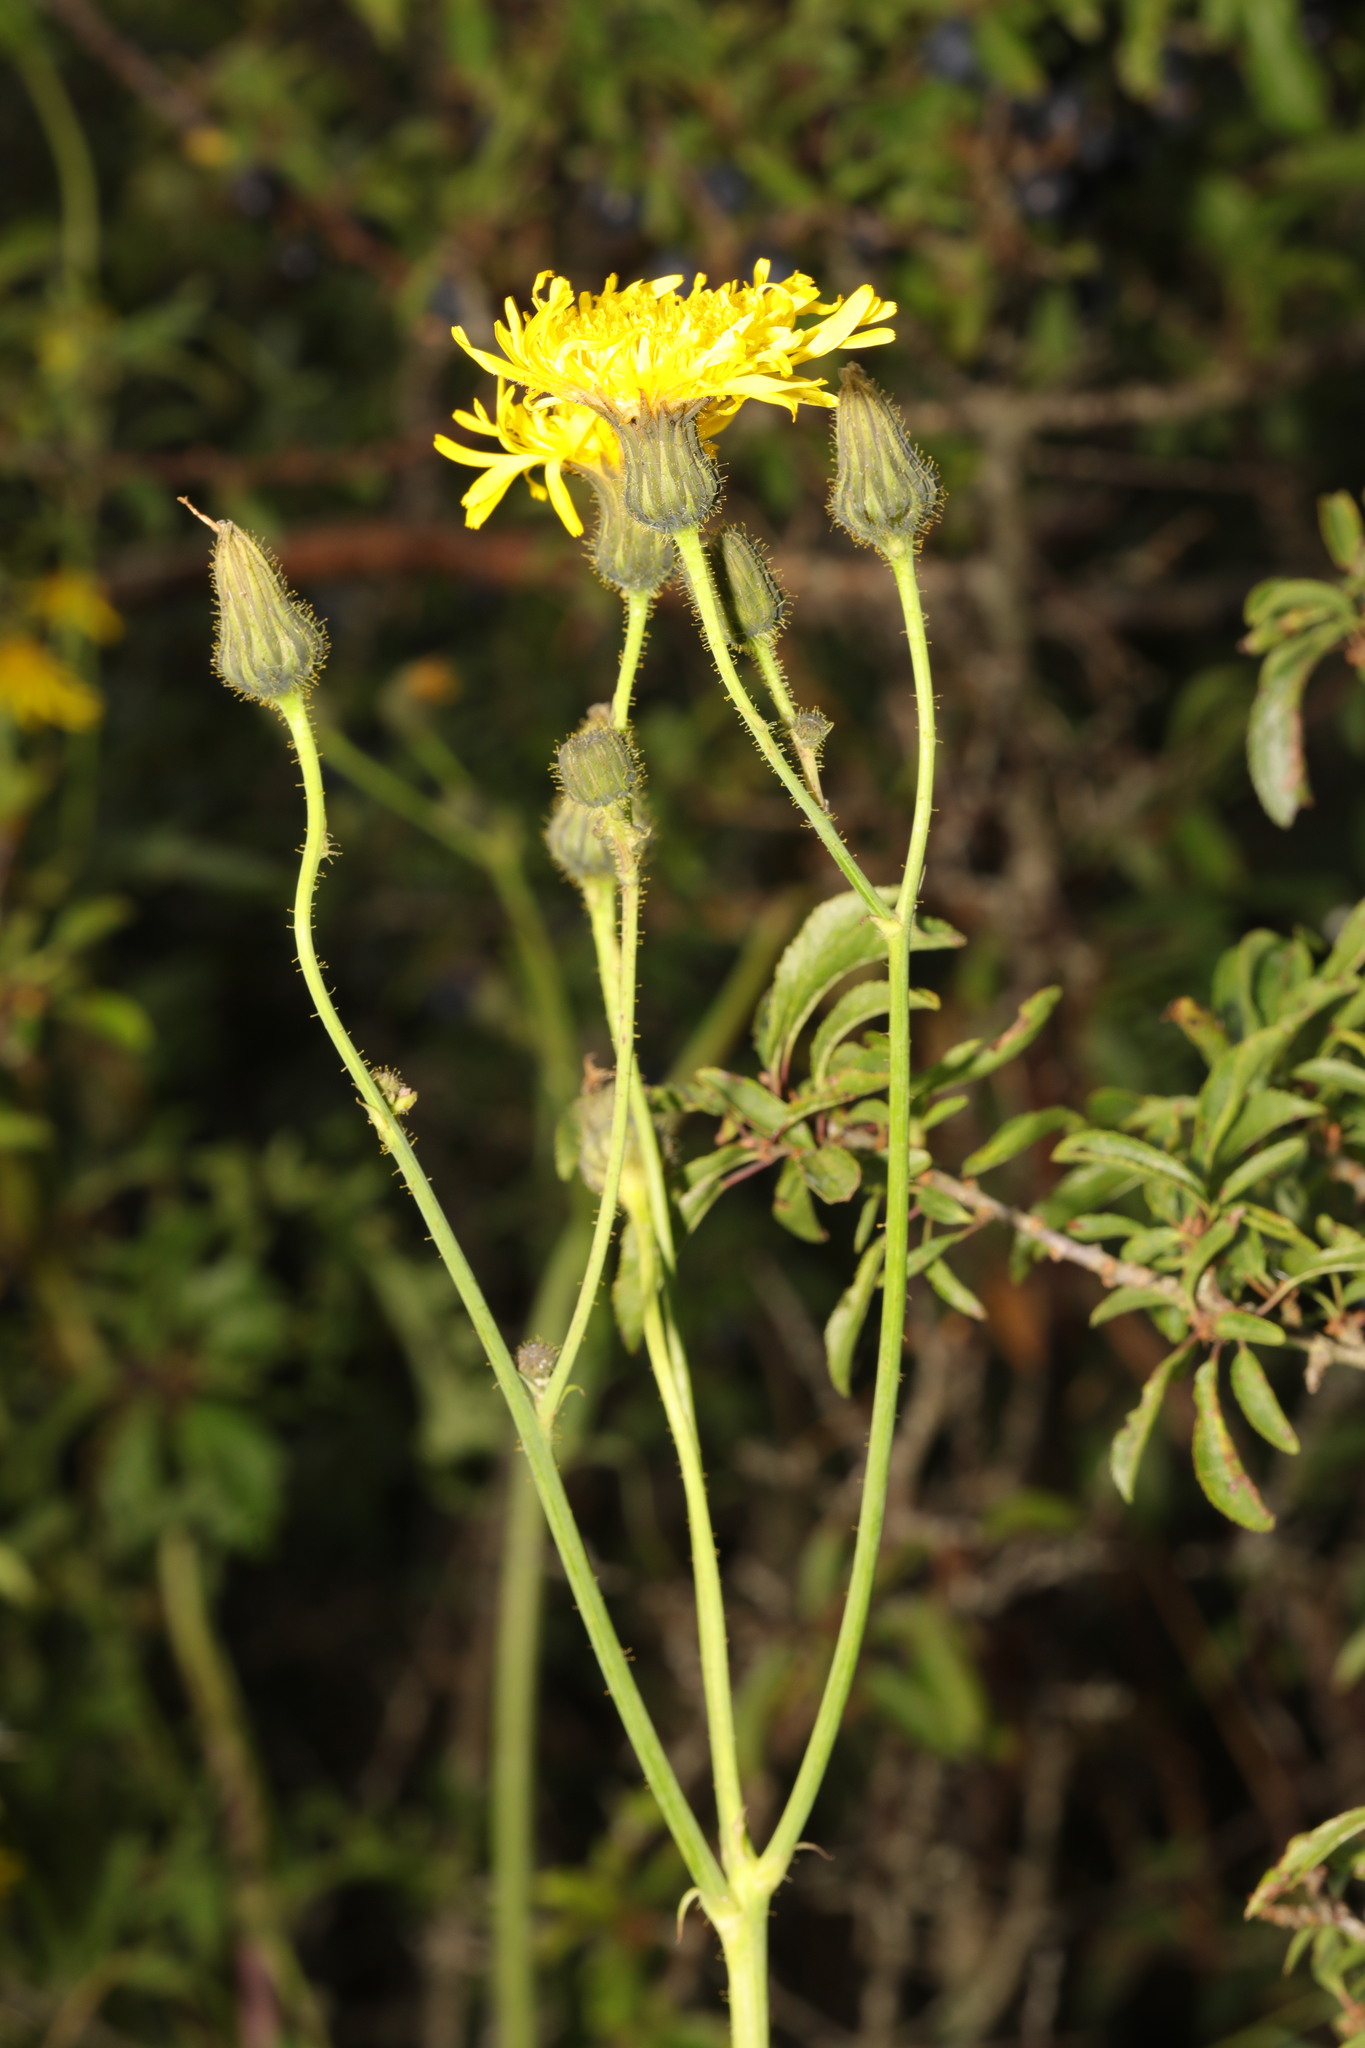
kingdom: Plantae
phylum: Tracheophyta
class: Magnoliopsida
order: Asterales
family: Asteraceae
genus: Sonchus
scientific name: Sonchus arvensis
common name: Perennial sow-thistle
